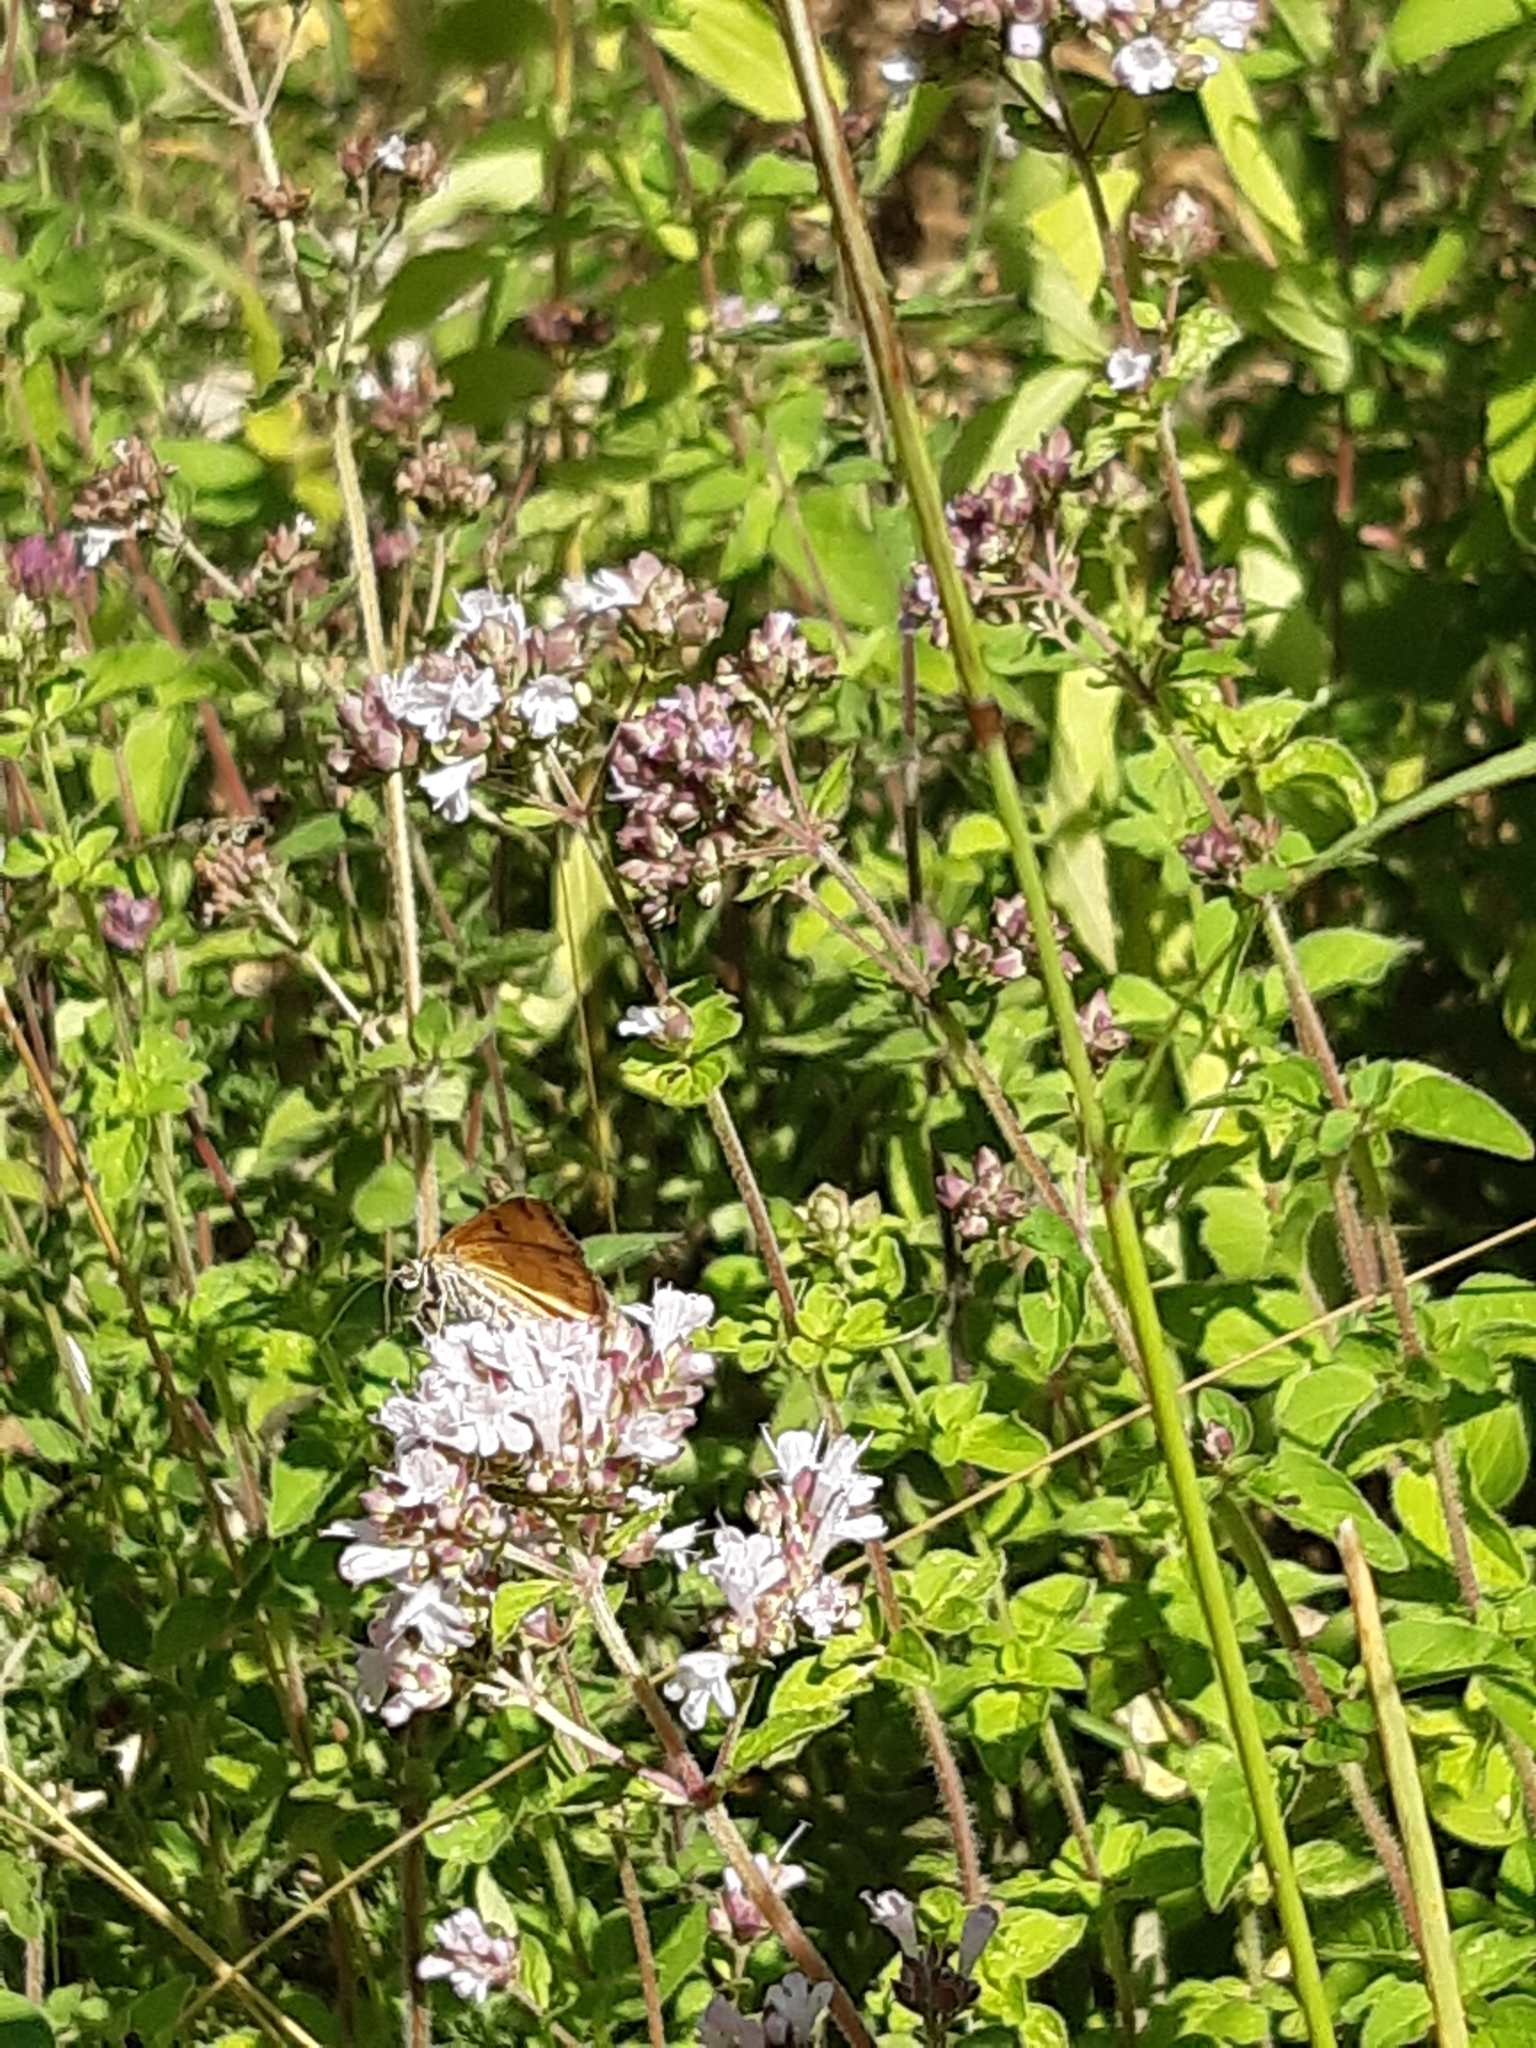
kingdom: Animalia
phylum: Arthropoda
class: Insecta
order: Lepidoptera
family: Erebidae
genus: Euclidia
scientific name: Euclidia glyphica
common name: Burnet companion
